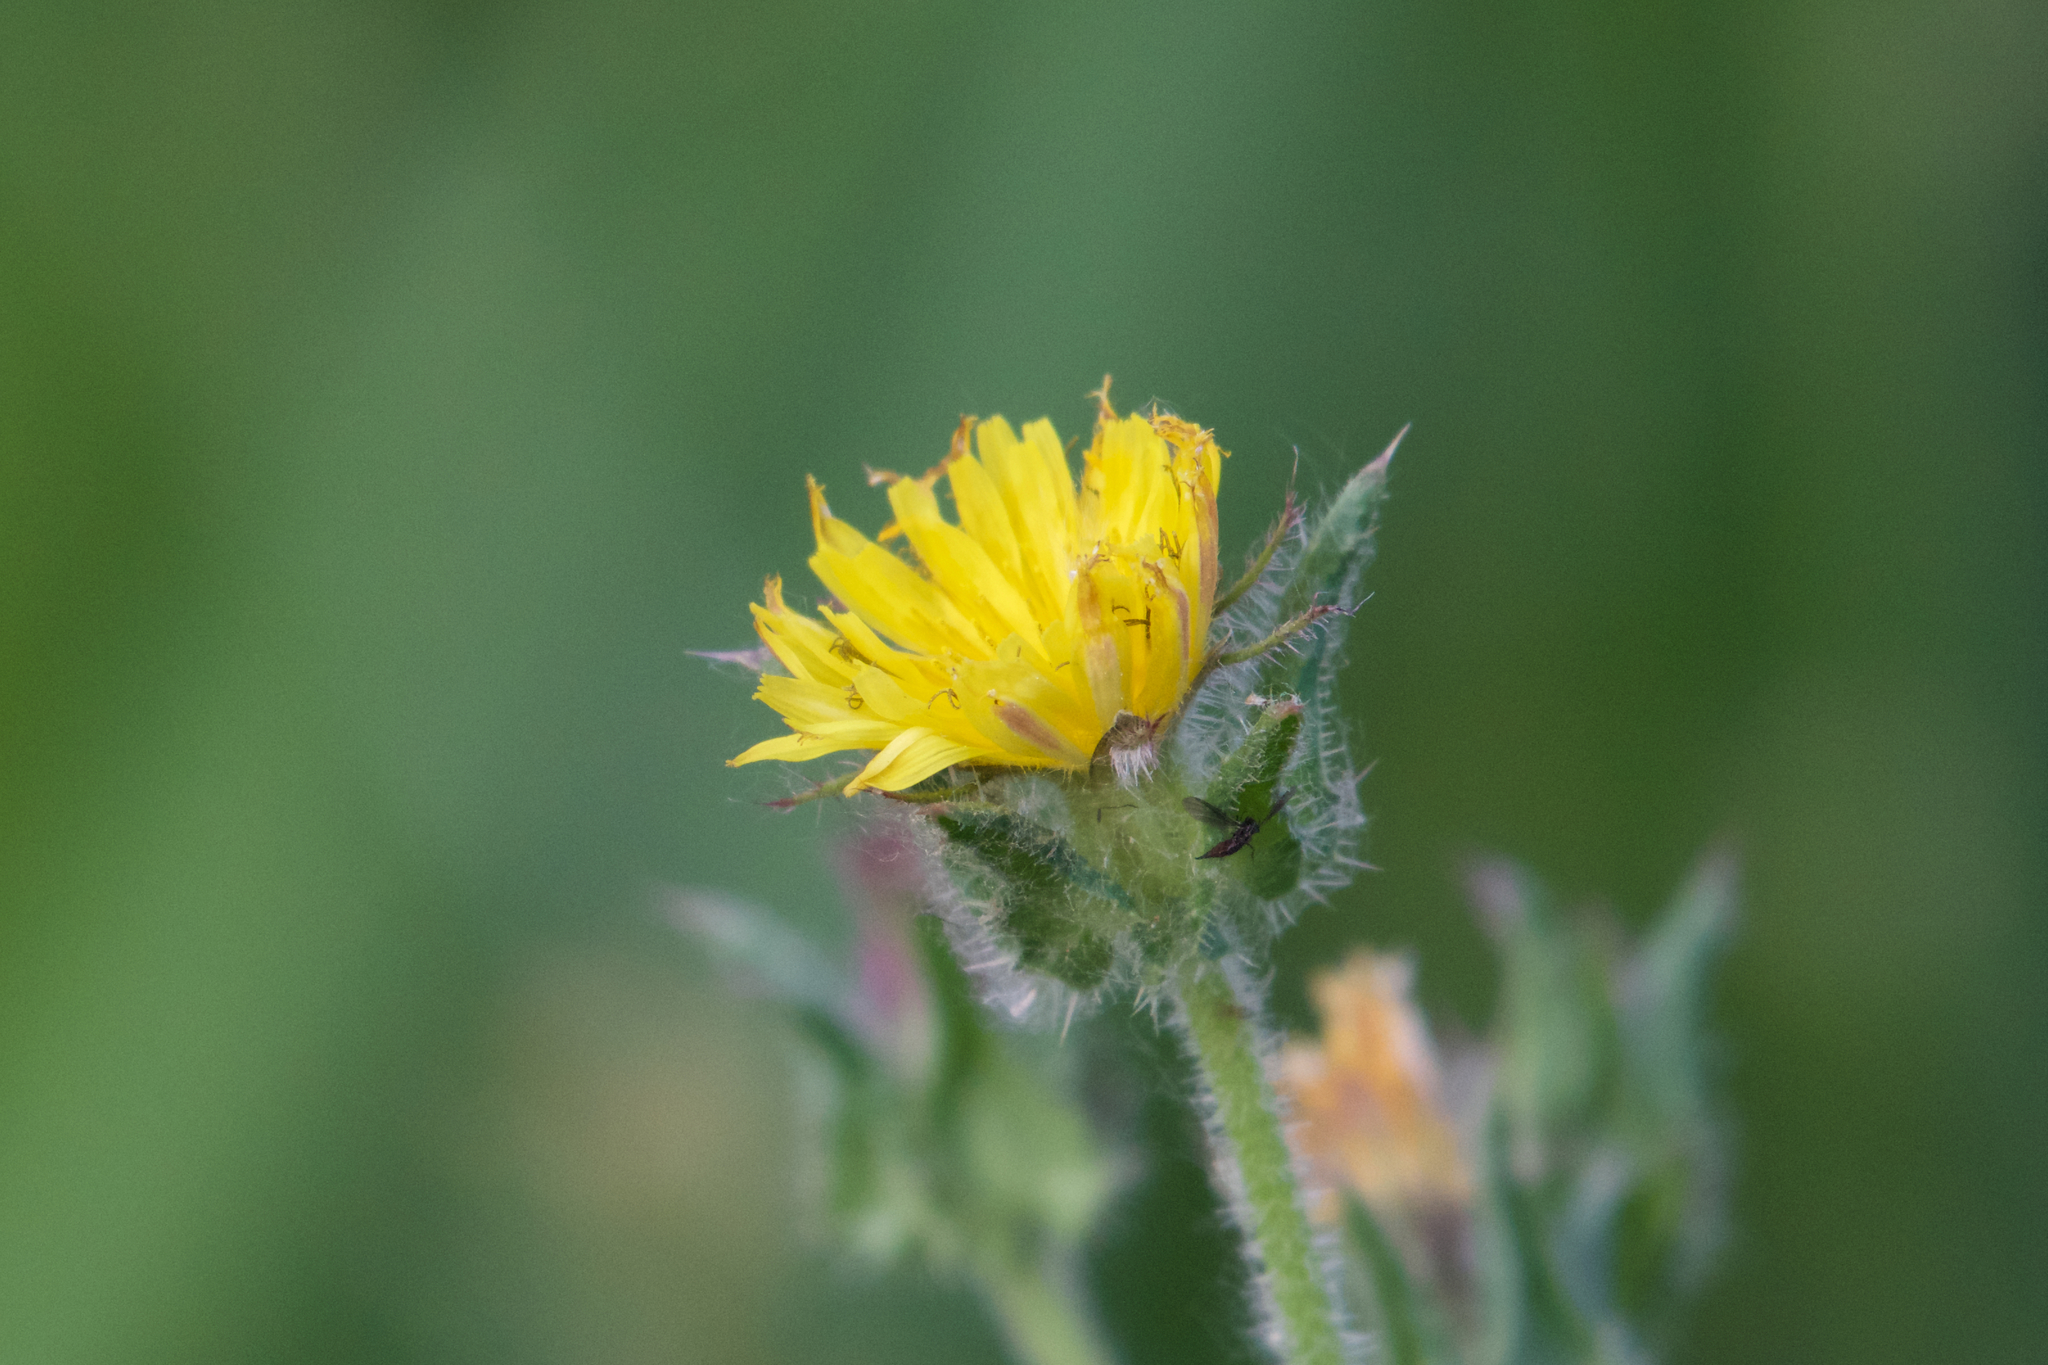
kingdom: Plantae
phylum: Tracheophyta
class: Magnoliopsida
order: Asterales
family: Asteraceae
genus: Helminthotheca
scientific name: Helminthotheca echioides
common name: Ox-tongue
